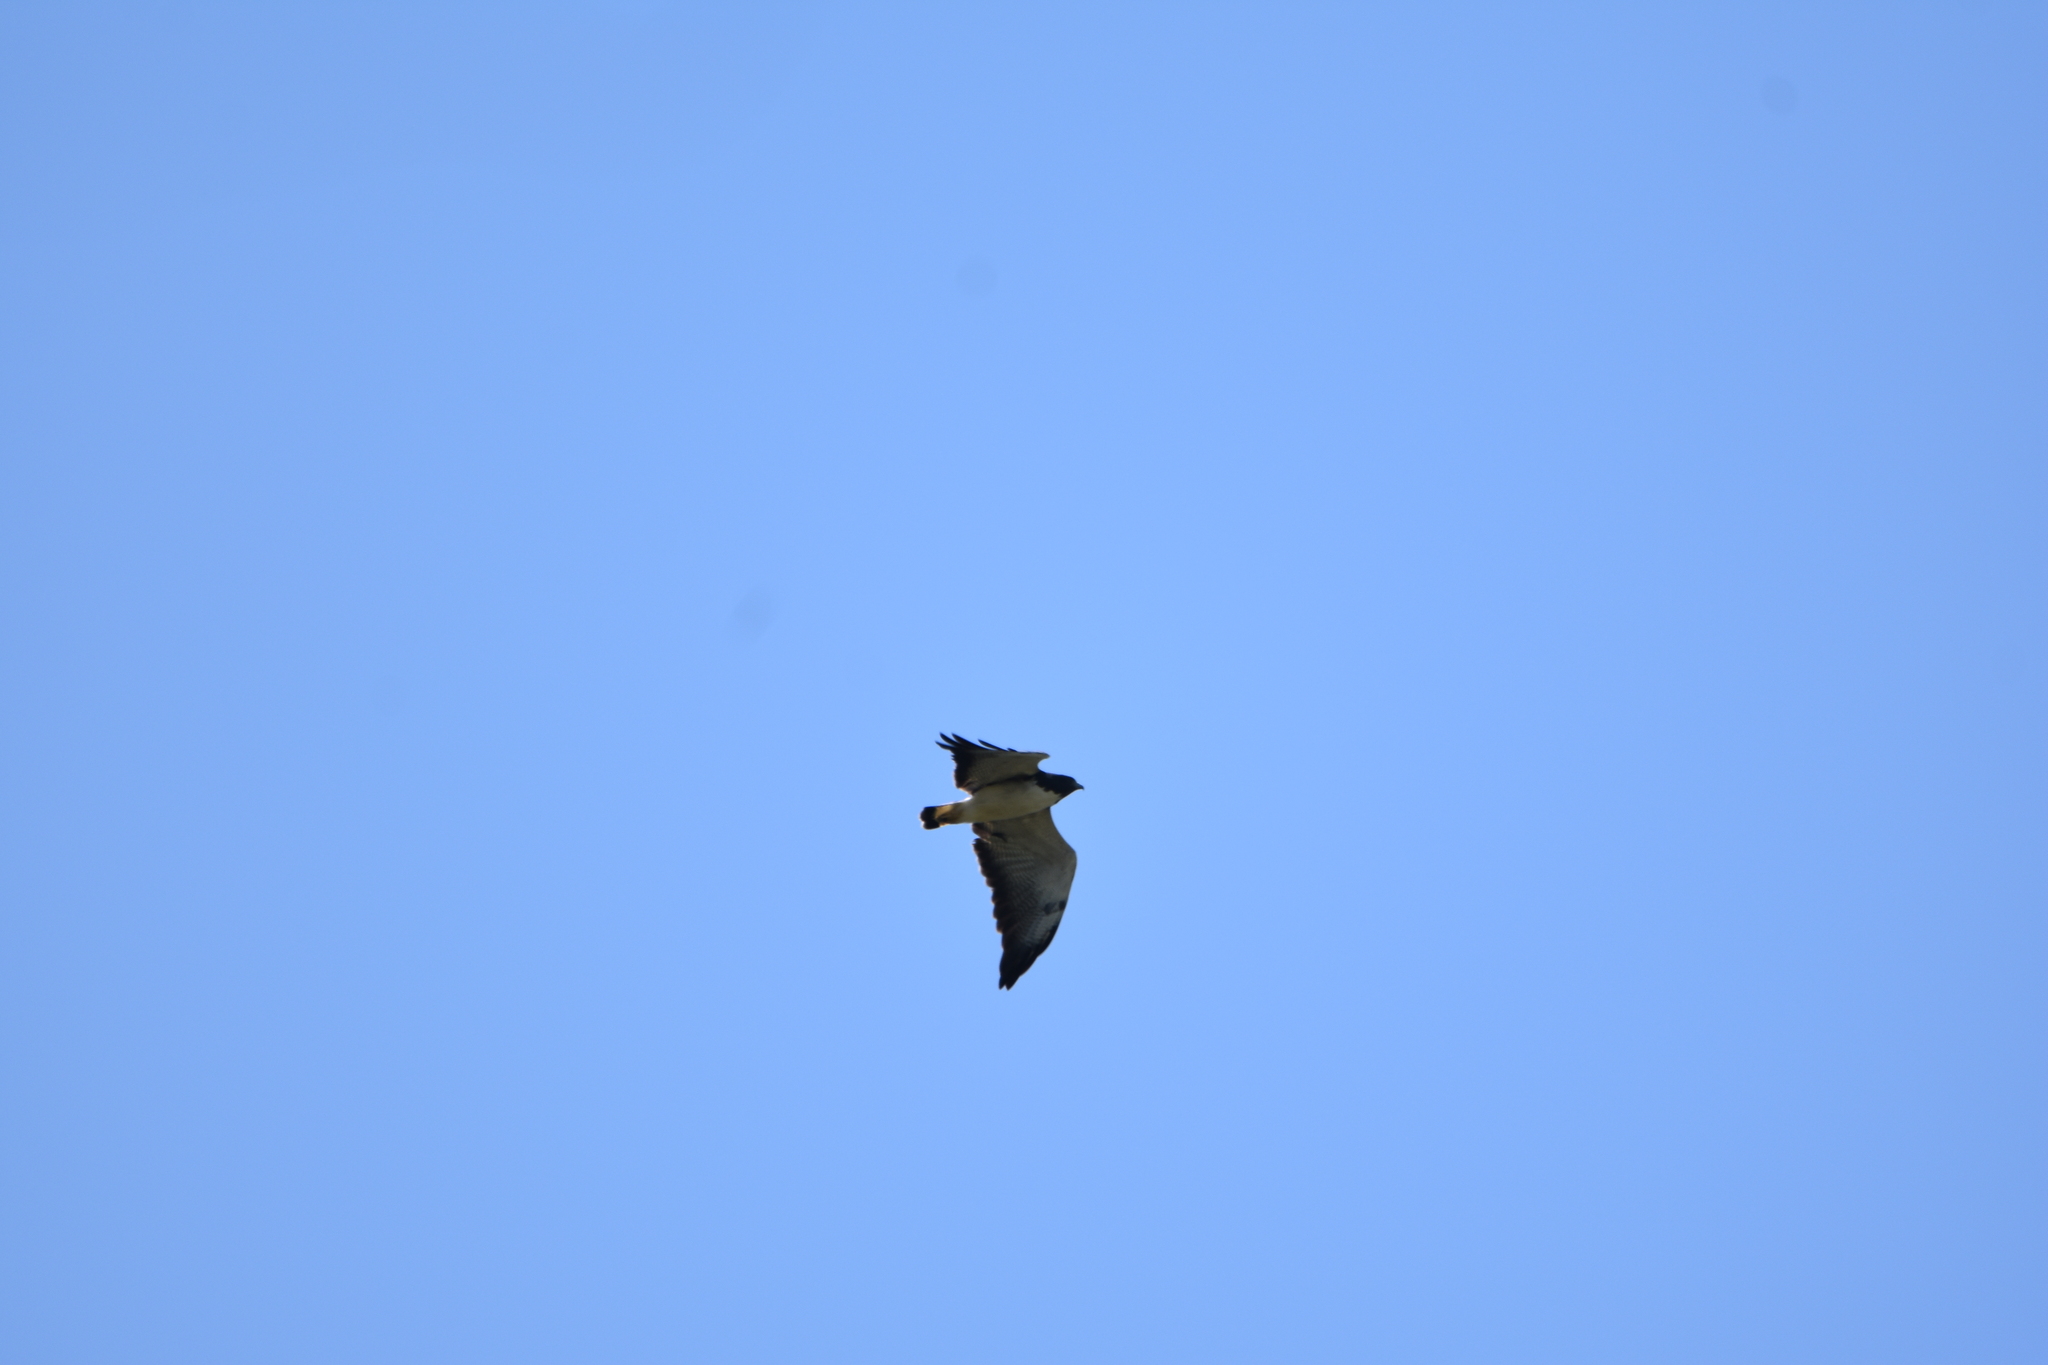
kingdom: Animalia
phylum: Chordata
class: Aves
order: Accipitriformes
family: Accipitridae
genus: Buteo
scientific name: Buteo albicaudatus
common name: White-tailed hawk
